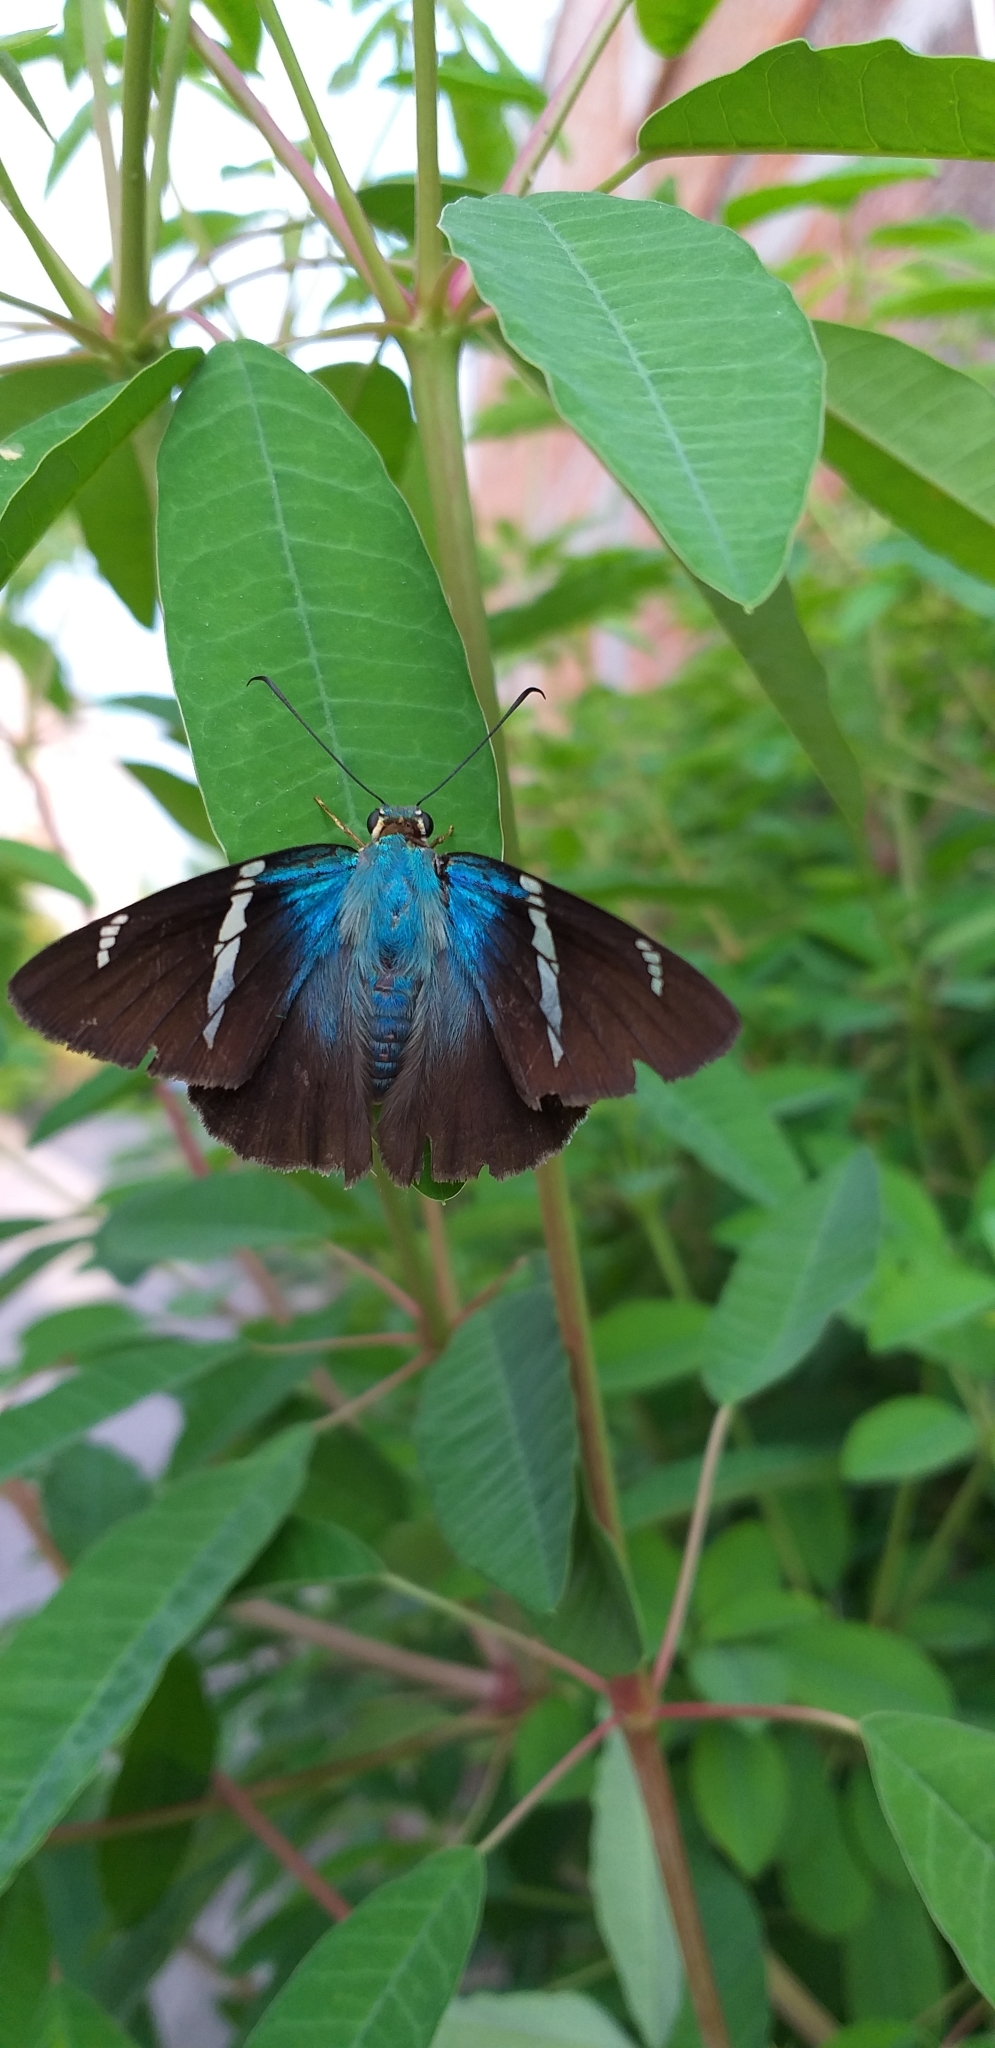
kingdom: Animalia
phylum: Arthropoda
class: Insecta
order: Lepidoptera
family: Hesperiidae
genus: Astraptes
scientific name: Astraptes fulgerator
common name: Two-barred flasher
